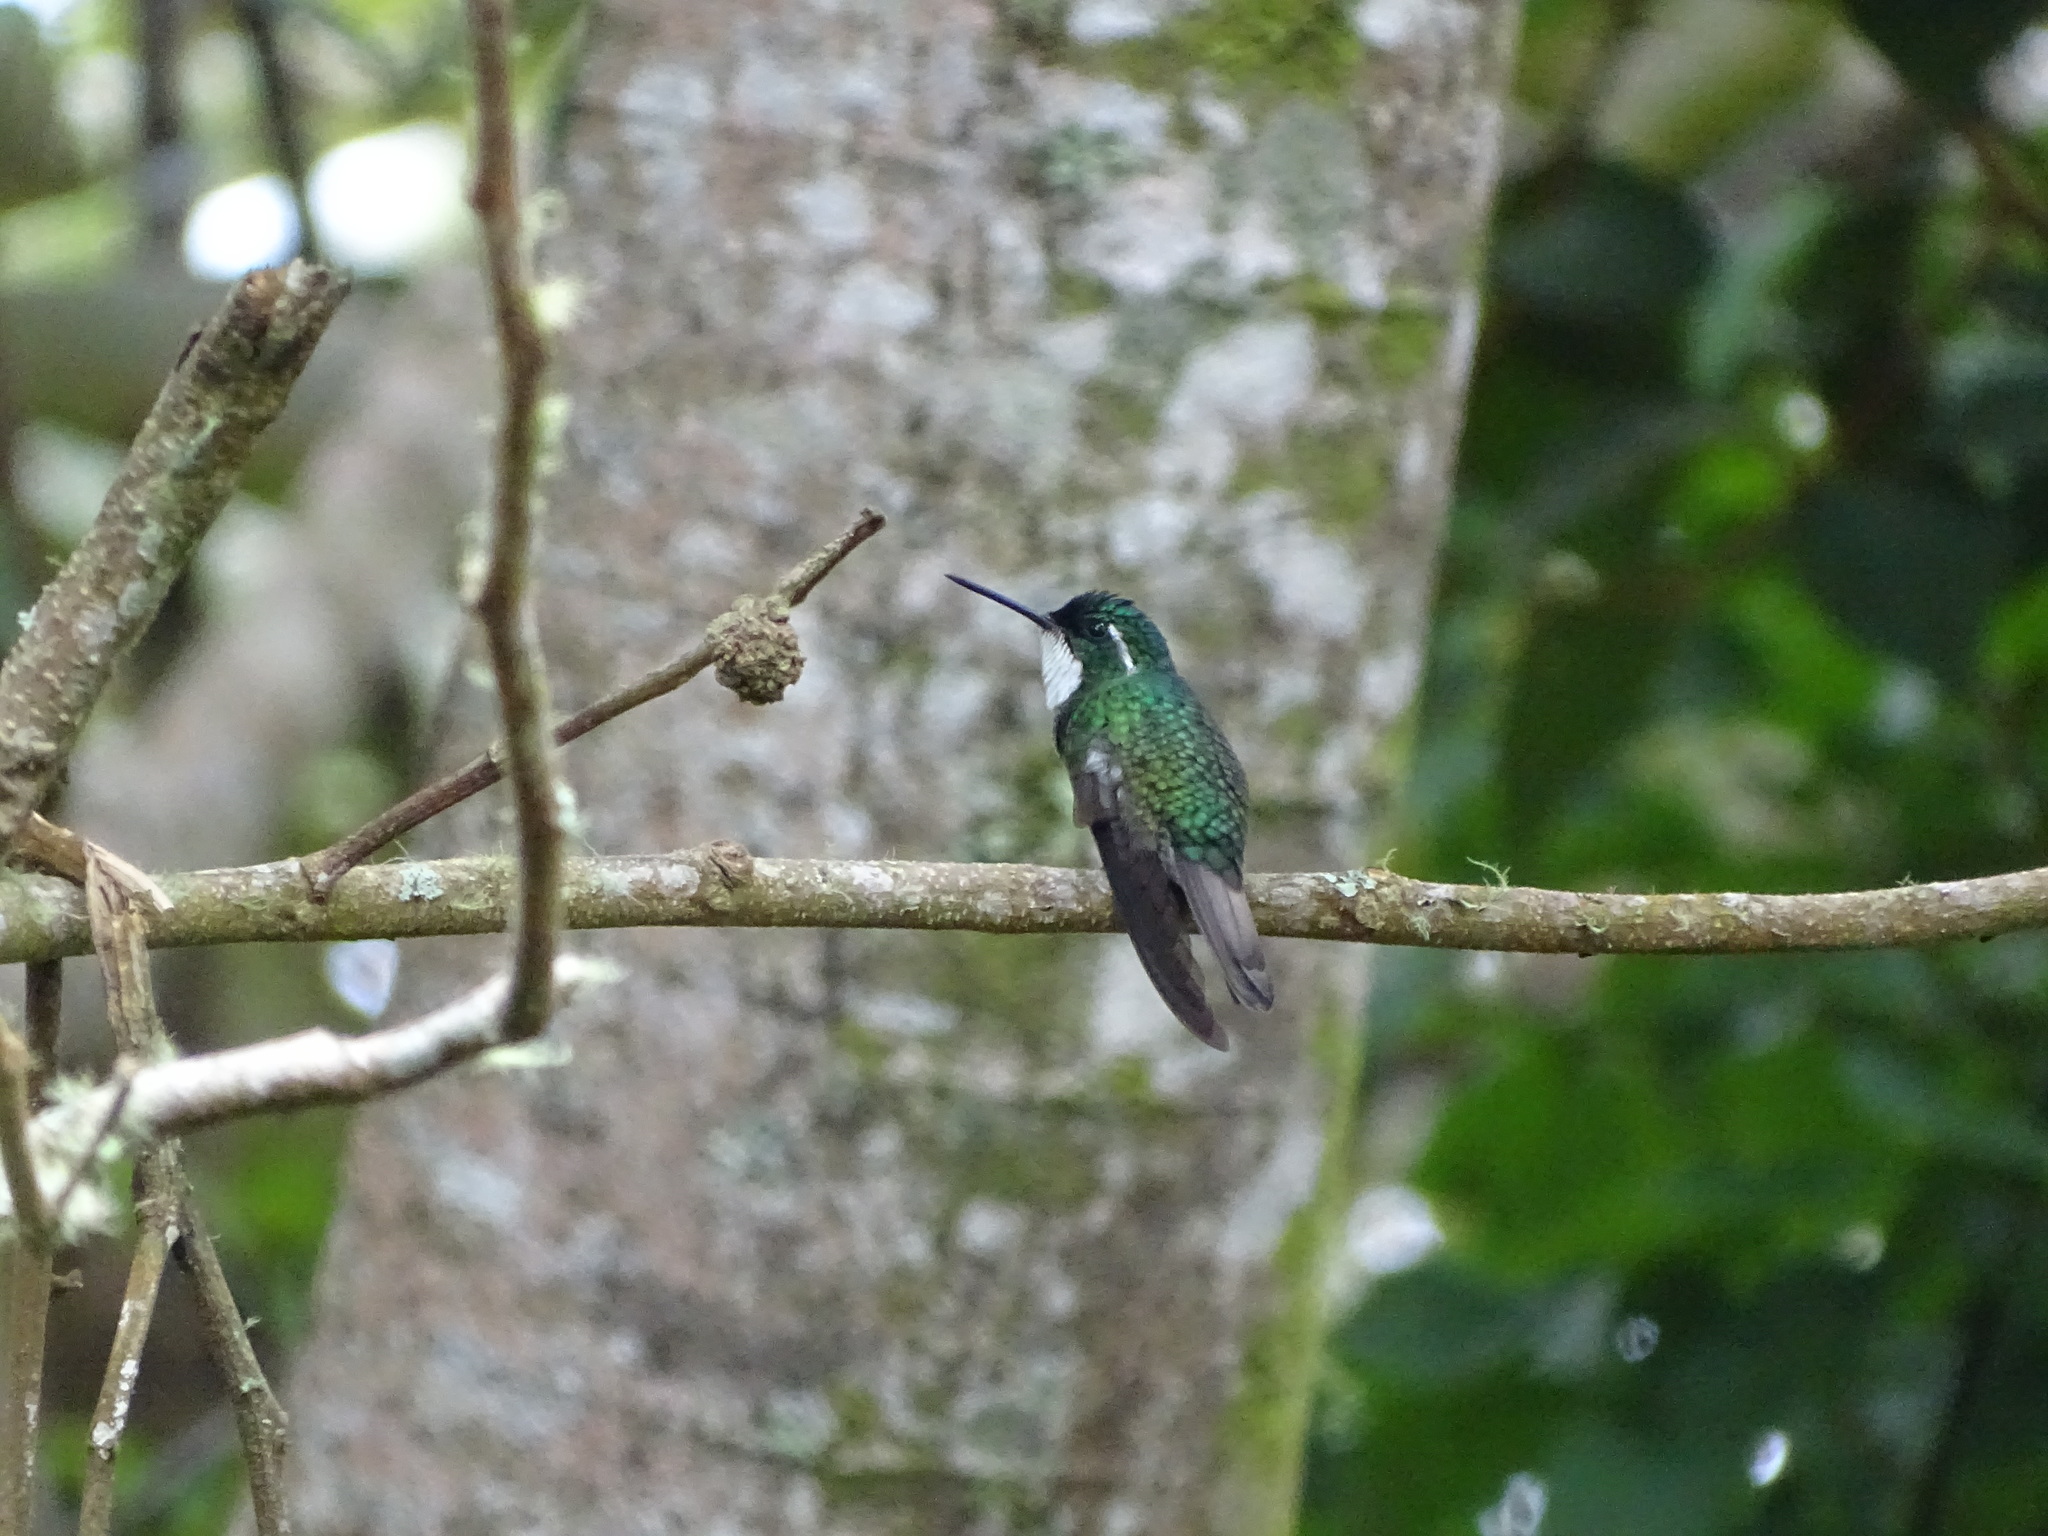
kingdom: Animalia
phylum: Chordata
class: Aves
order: Apodiformes
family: Trochilidae
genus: Lampornis
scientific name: Lampornis castaneoventris
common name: White-throated mountain-gem
